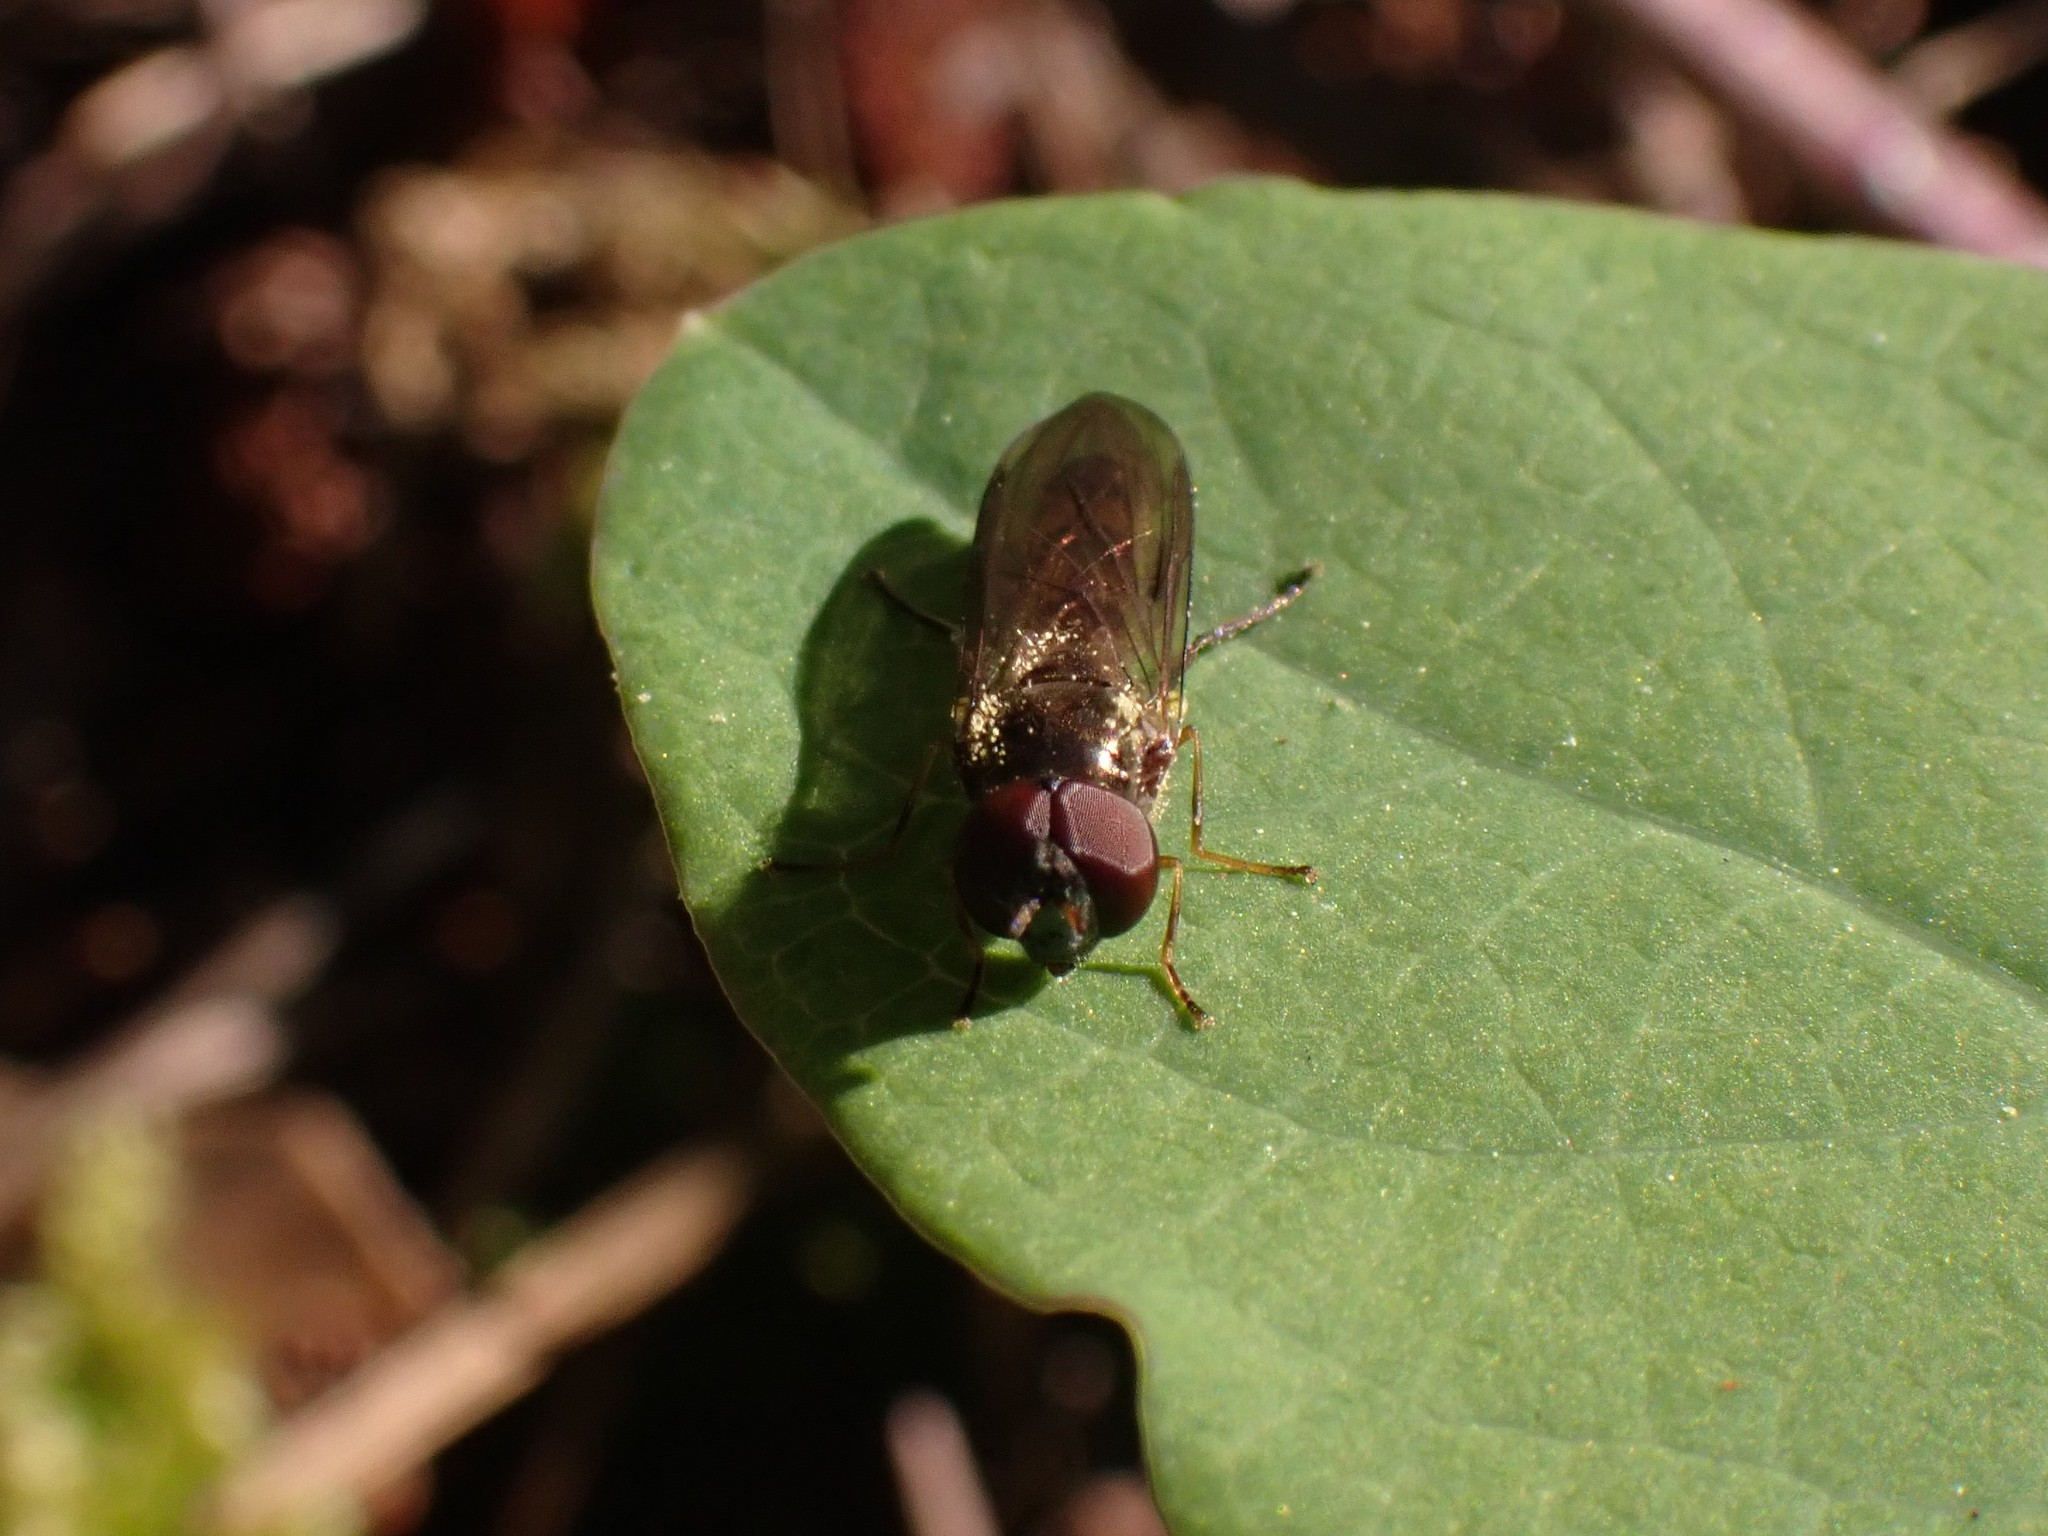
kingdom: Animalia
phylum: Arthropoda
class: Insecta
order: Diptera
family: Syrphidae
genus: Melanostoma
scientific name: Melanostoma mellina
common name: Hover fly
